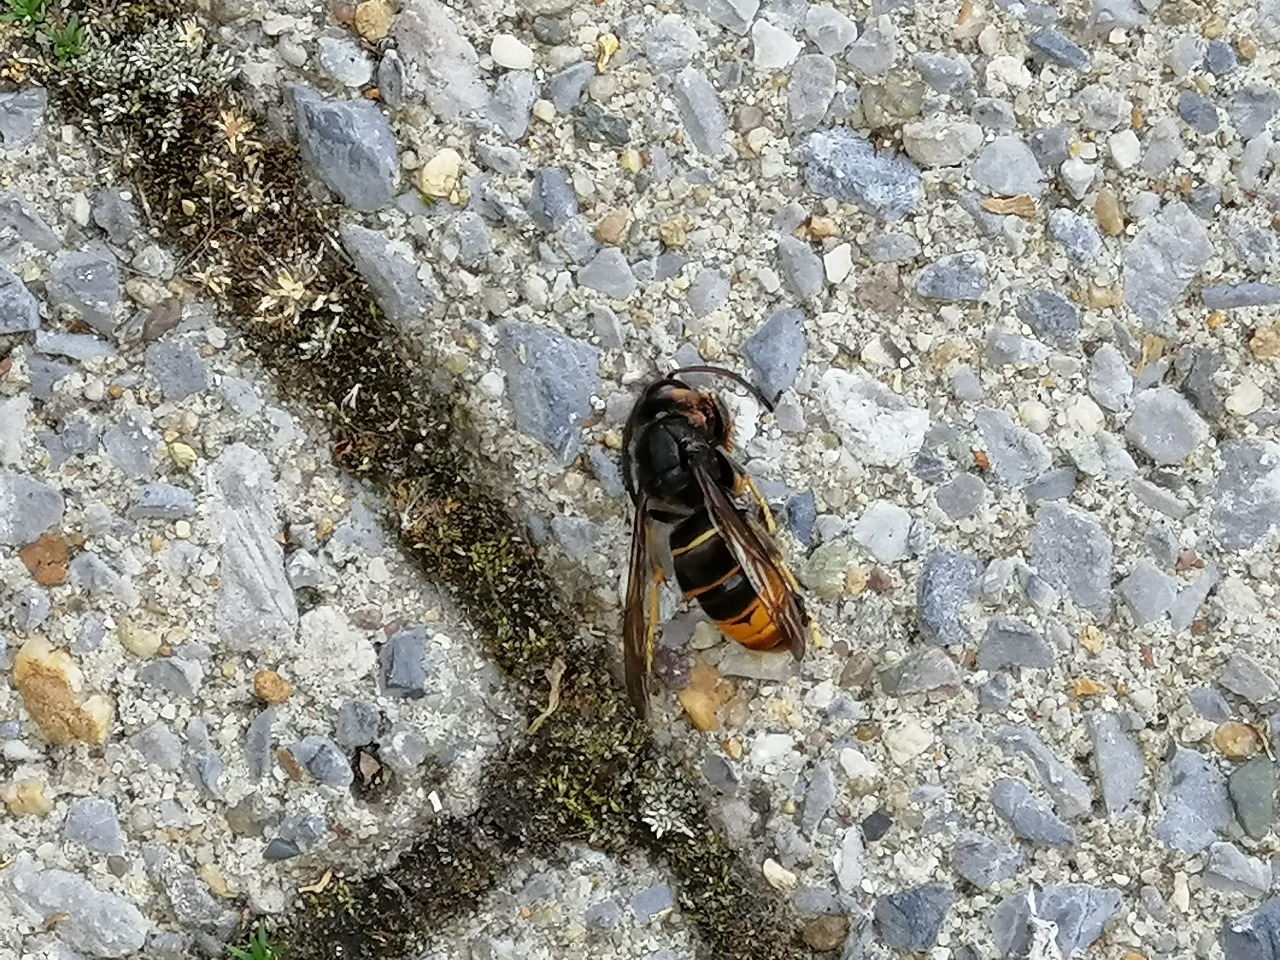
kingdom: Animalia
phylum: Arthropoda
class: Insecta
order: Hymenoptera
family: Vespidae
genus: Vespa
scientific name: Vespa velutina
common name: Asian hornet
